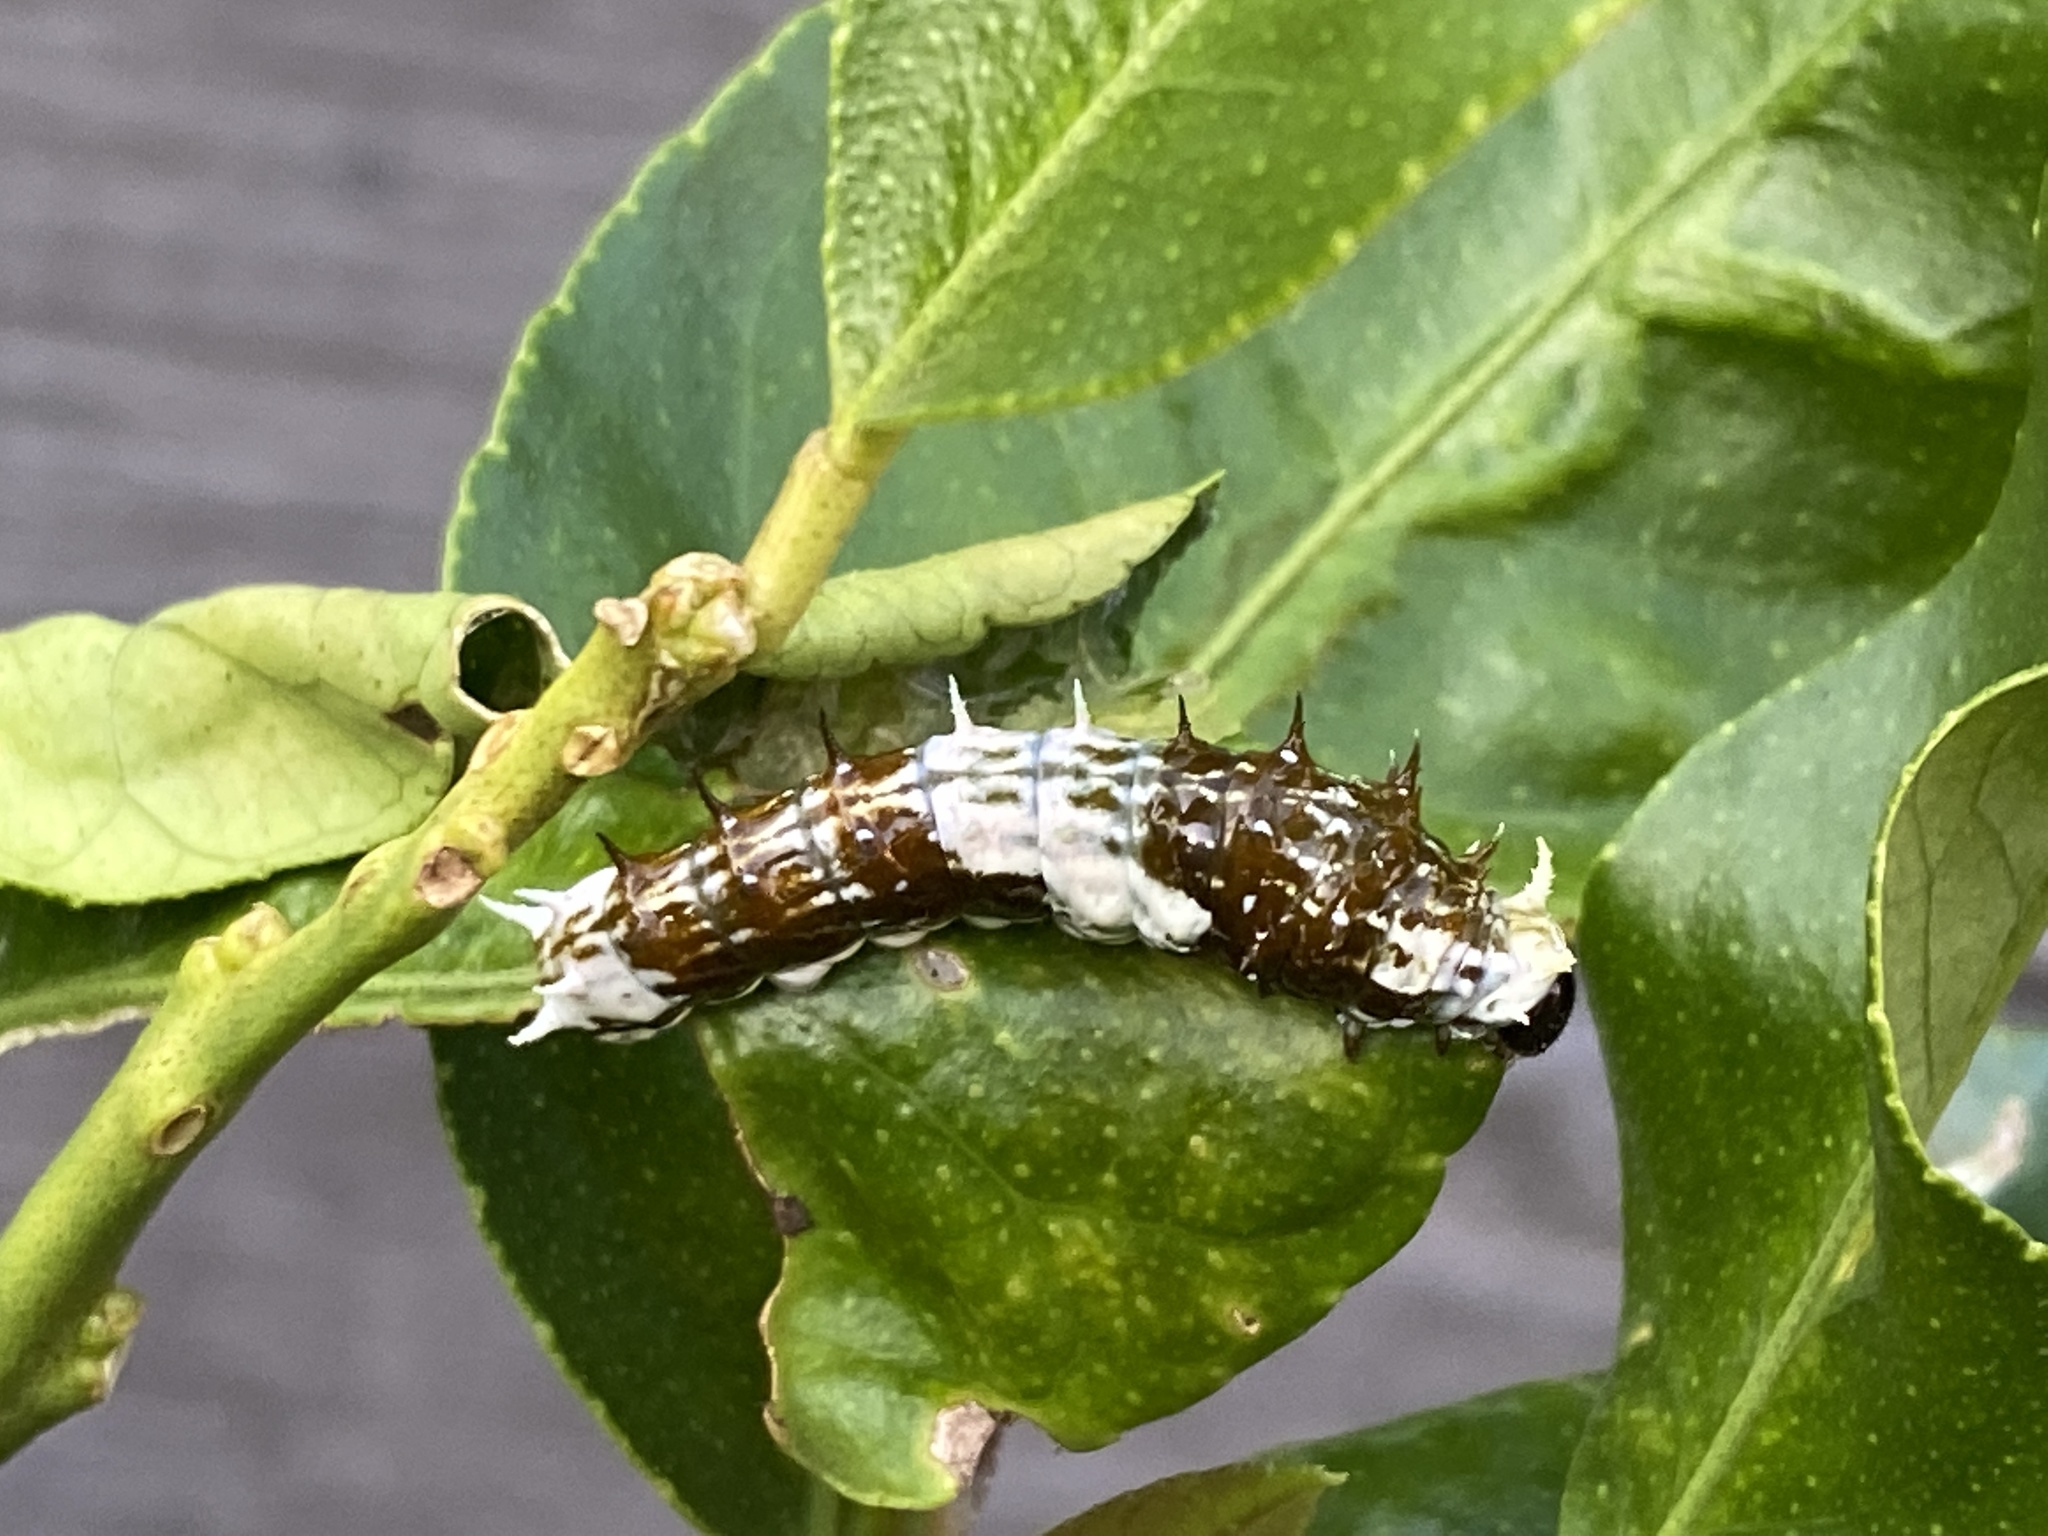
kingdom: Animalia
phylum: Arthropoda
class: Insecta
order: Lepidoptera
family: Papilionidae
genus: Papilio
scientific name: Papilio aegeus
